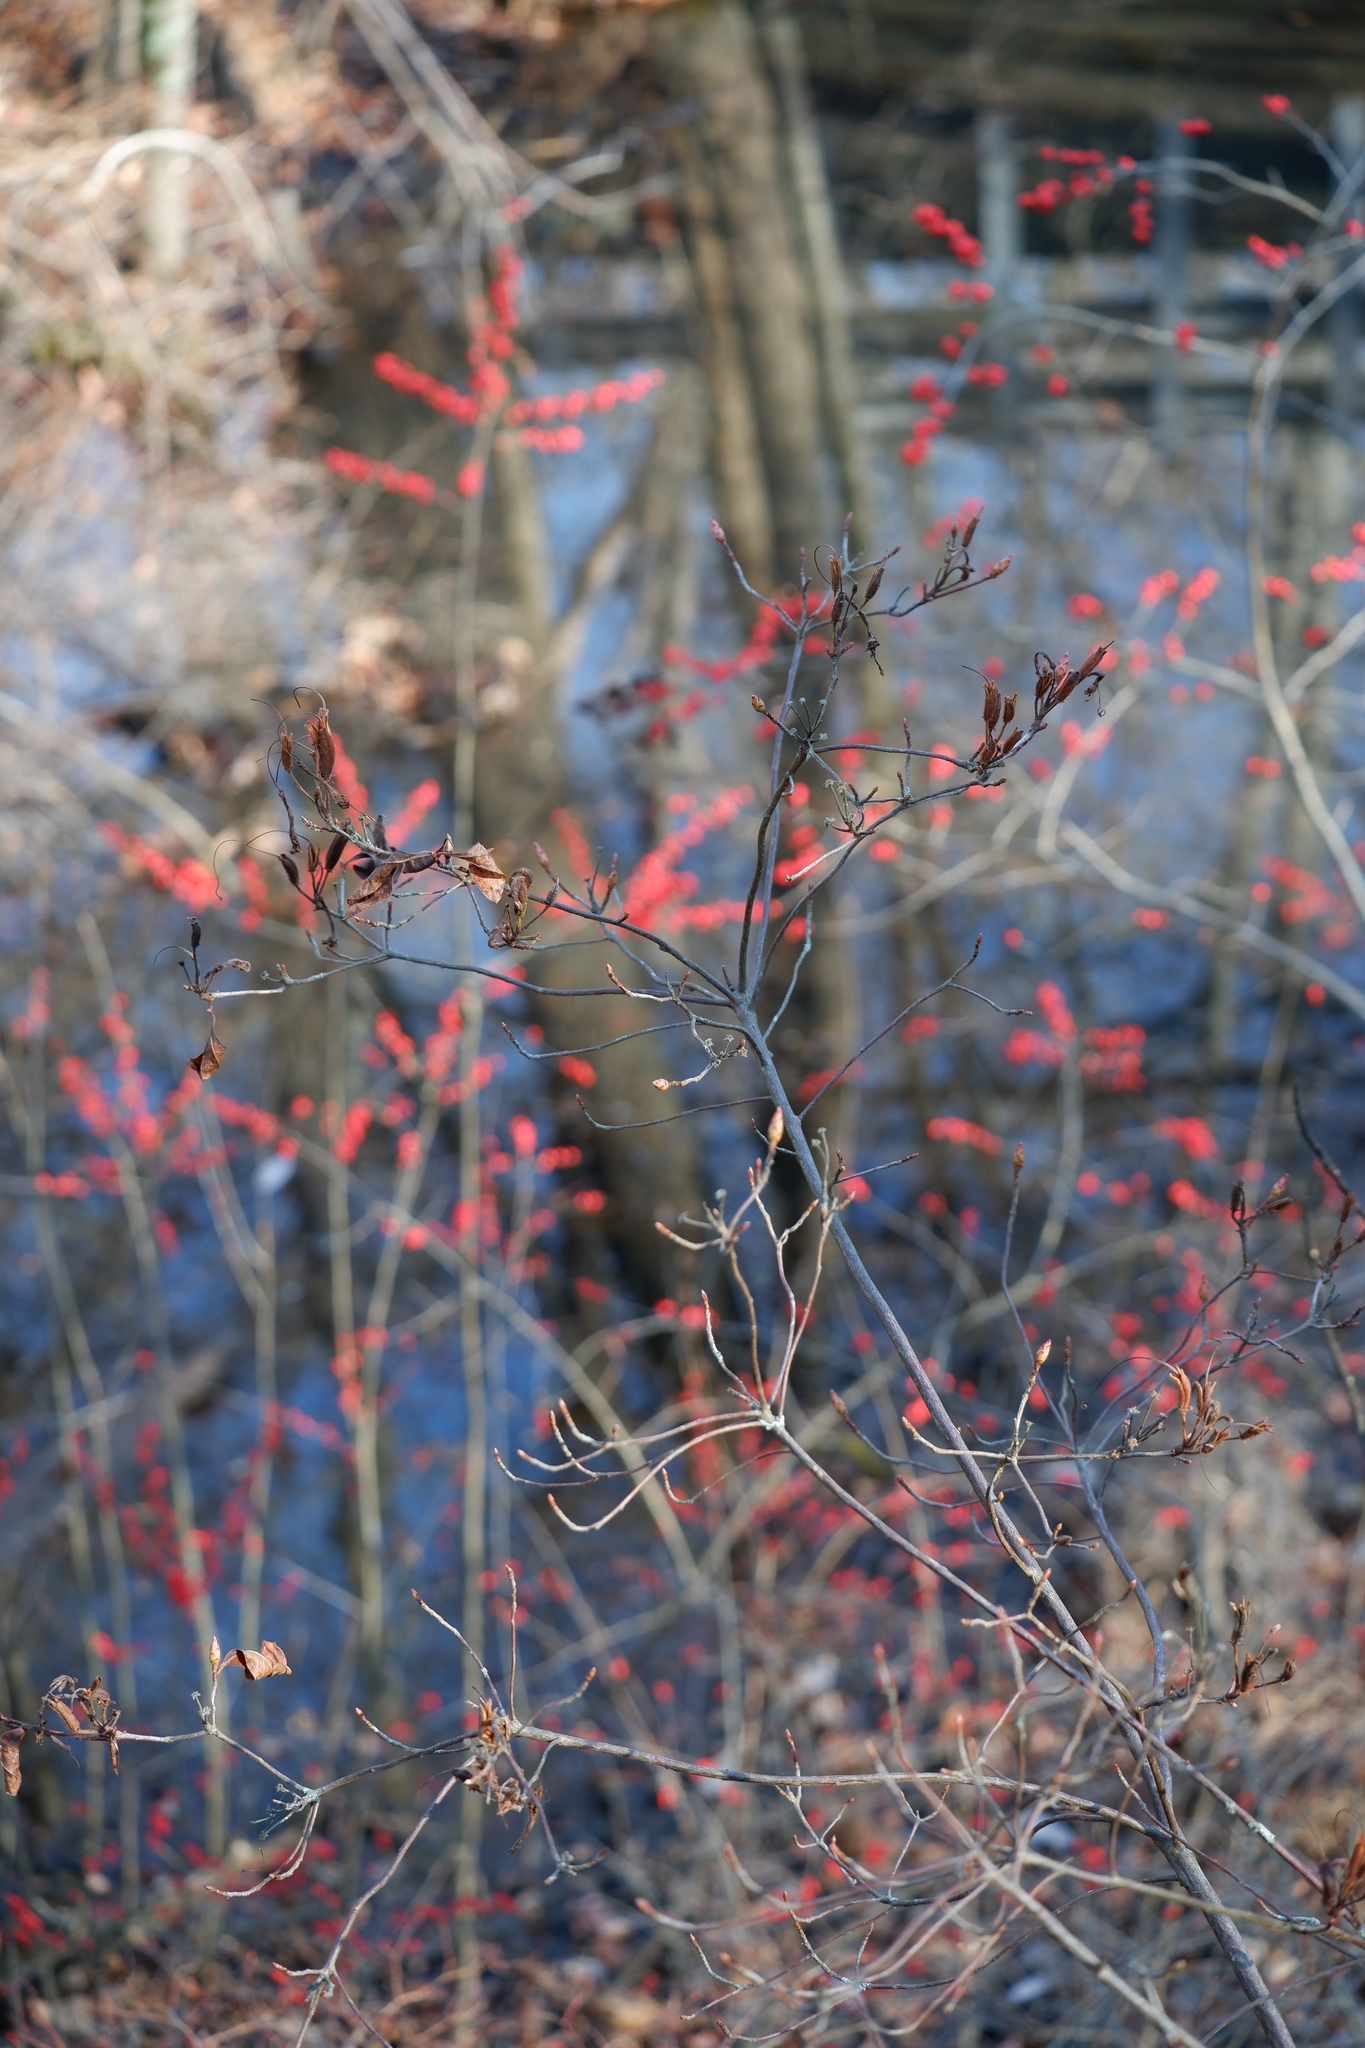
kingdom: Plantae
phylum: Tracheophyta
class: Magnoliopsida
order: Ericales
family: Ericaceae
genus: Rhododendron
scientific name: Rhododendron viscosum
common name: Clammy azalea
